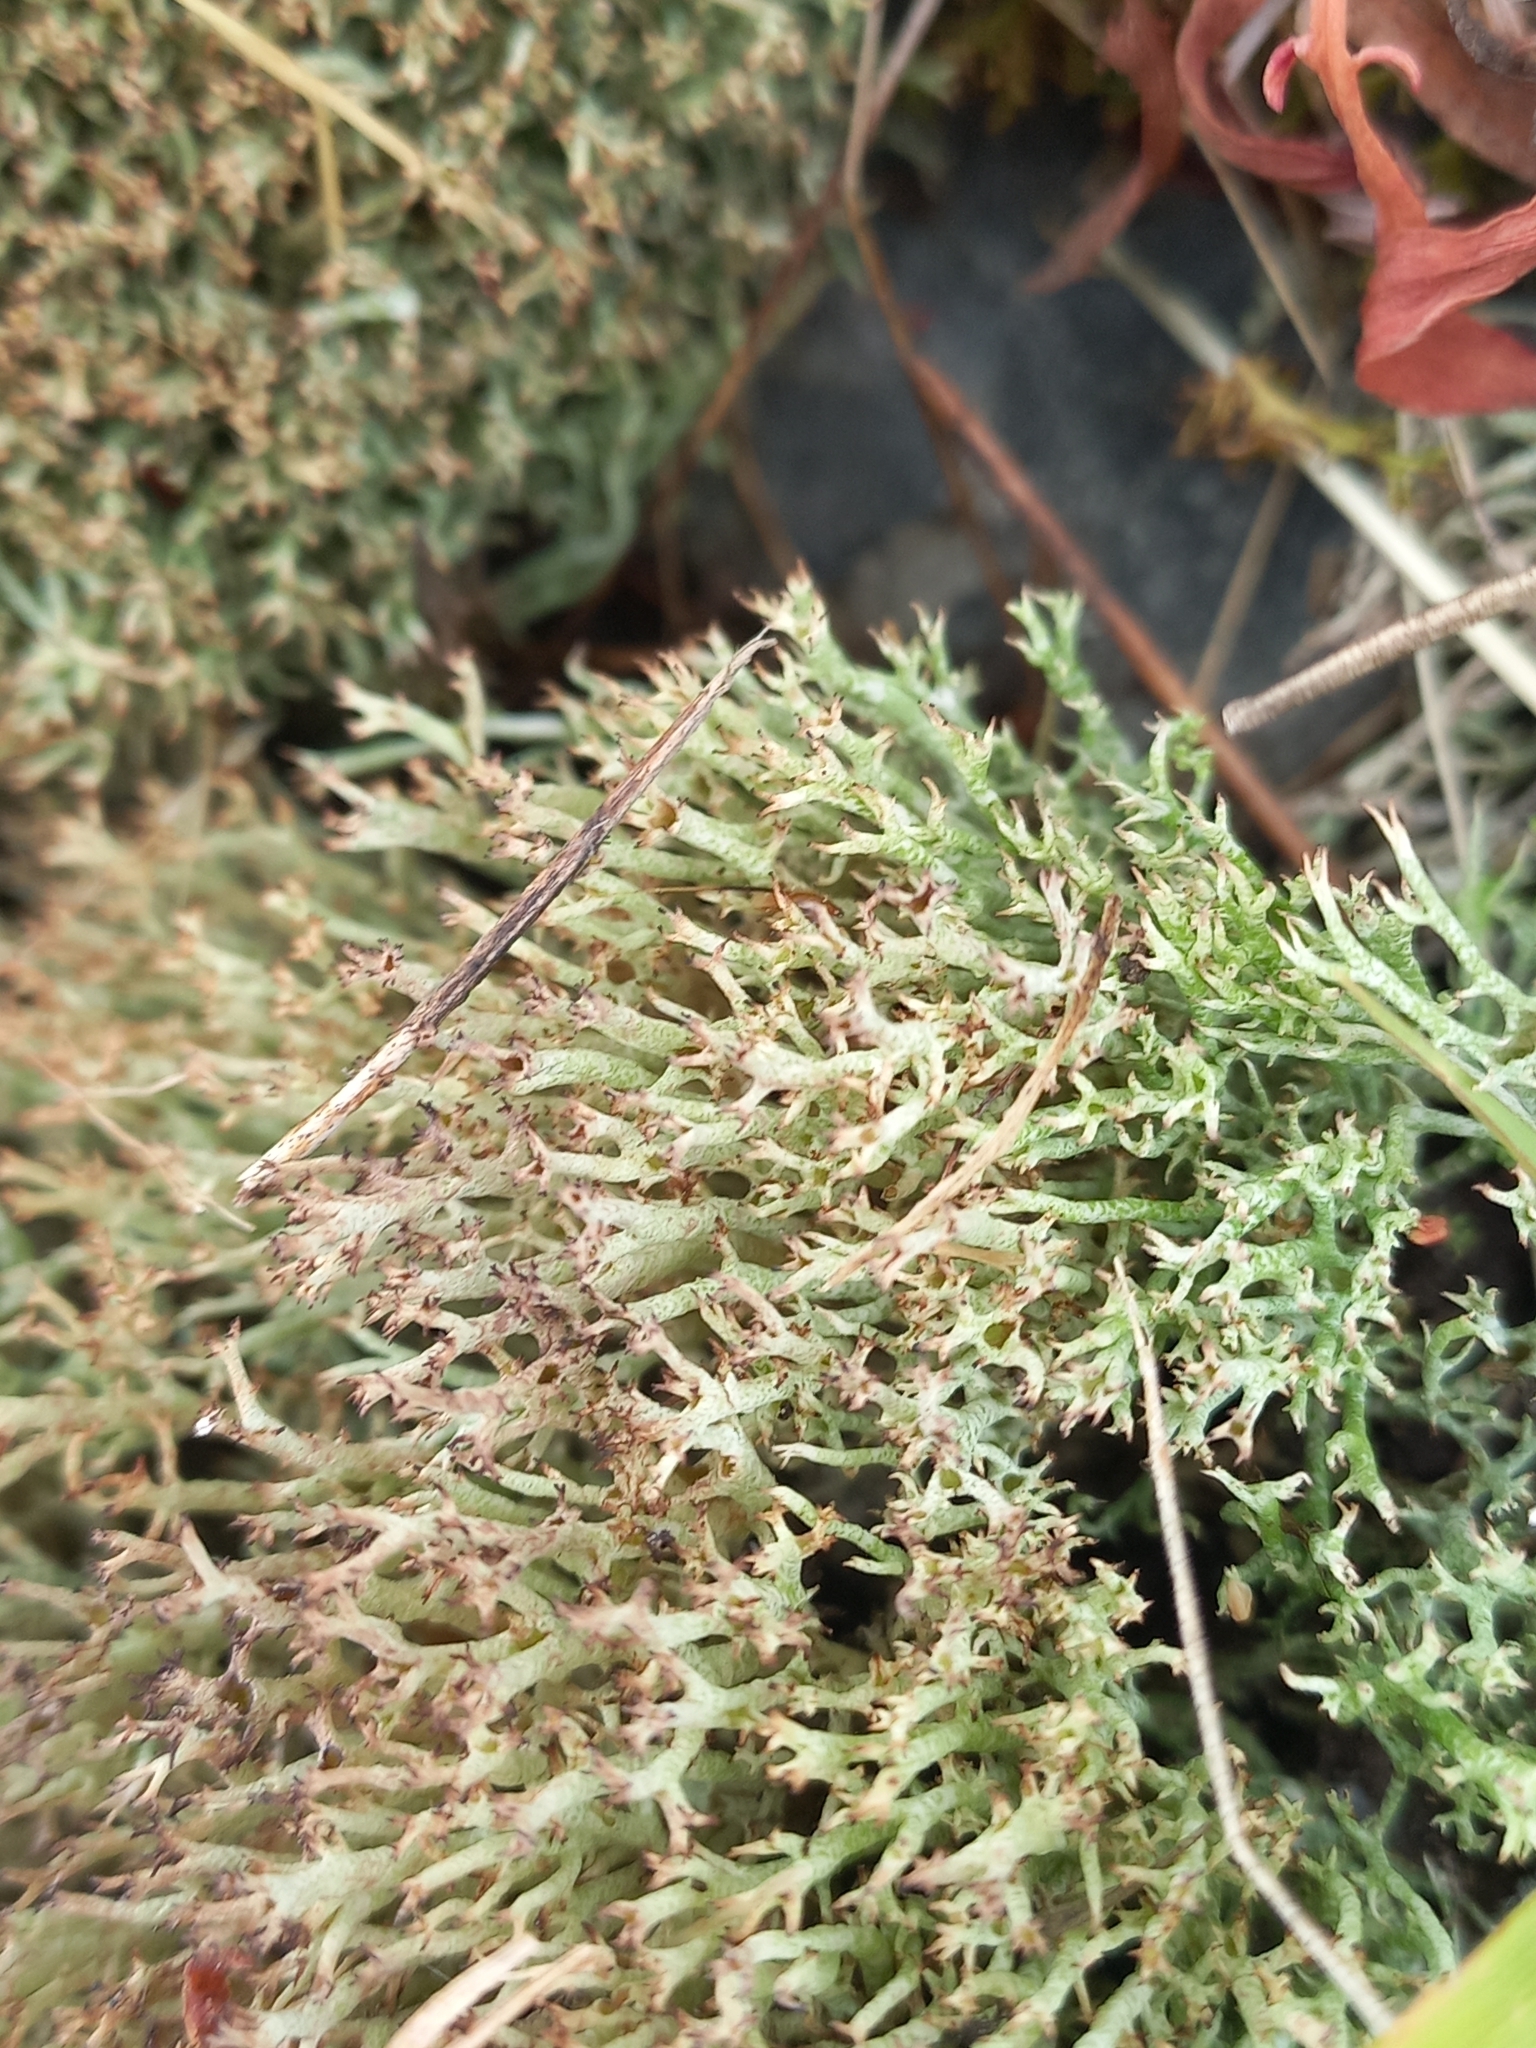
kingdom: Fungi
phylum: Ascomycota
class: Lecanoromycetes
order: Lecanorales
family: Cladoniaceae
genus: Cladonia
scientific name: Cladonia capitellata
